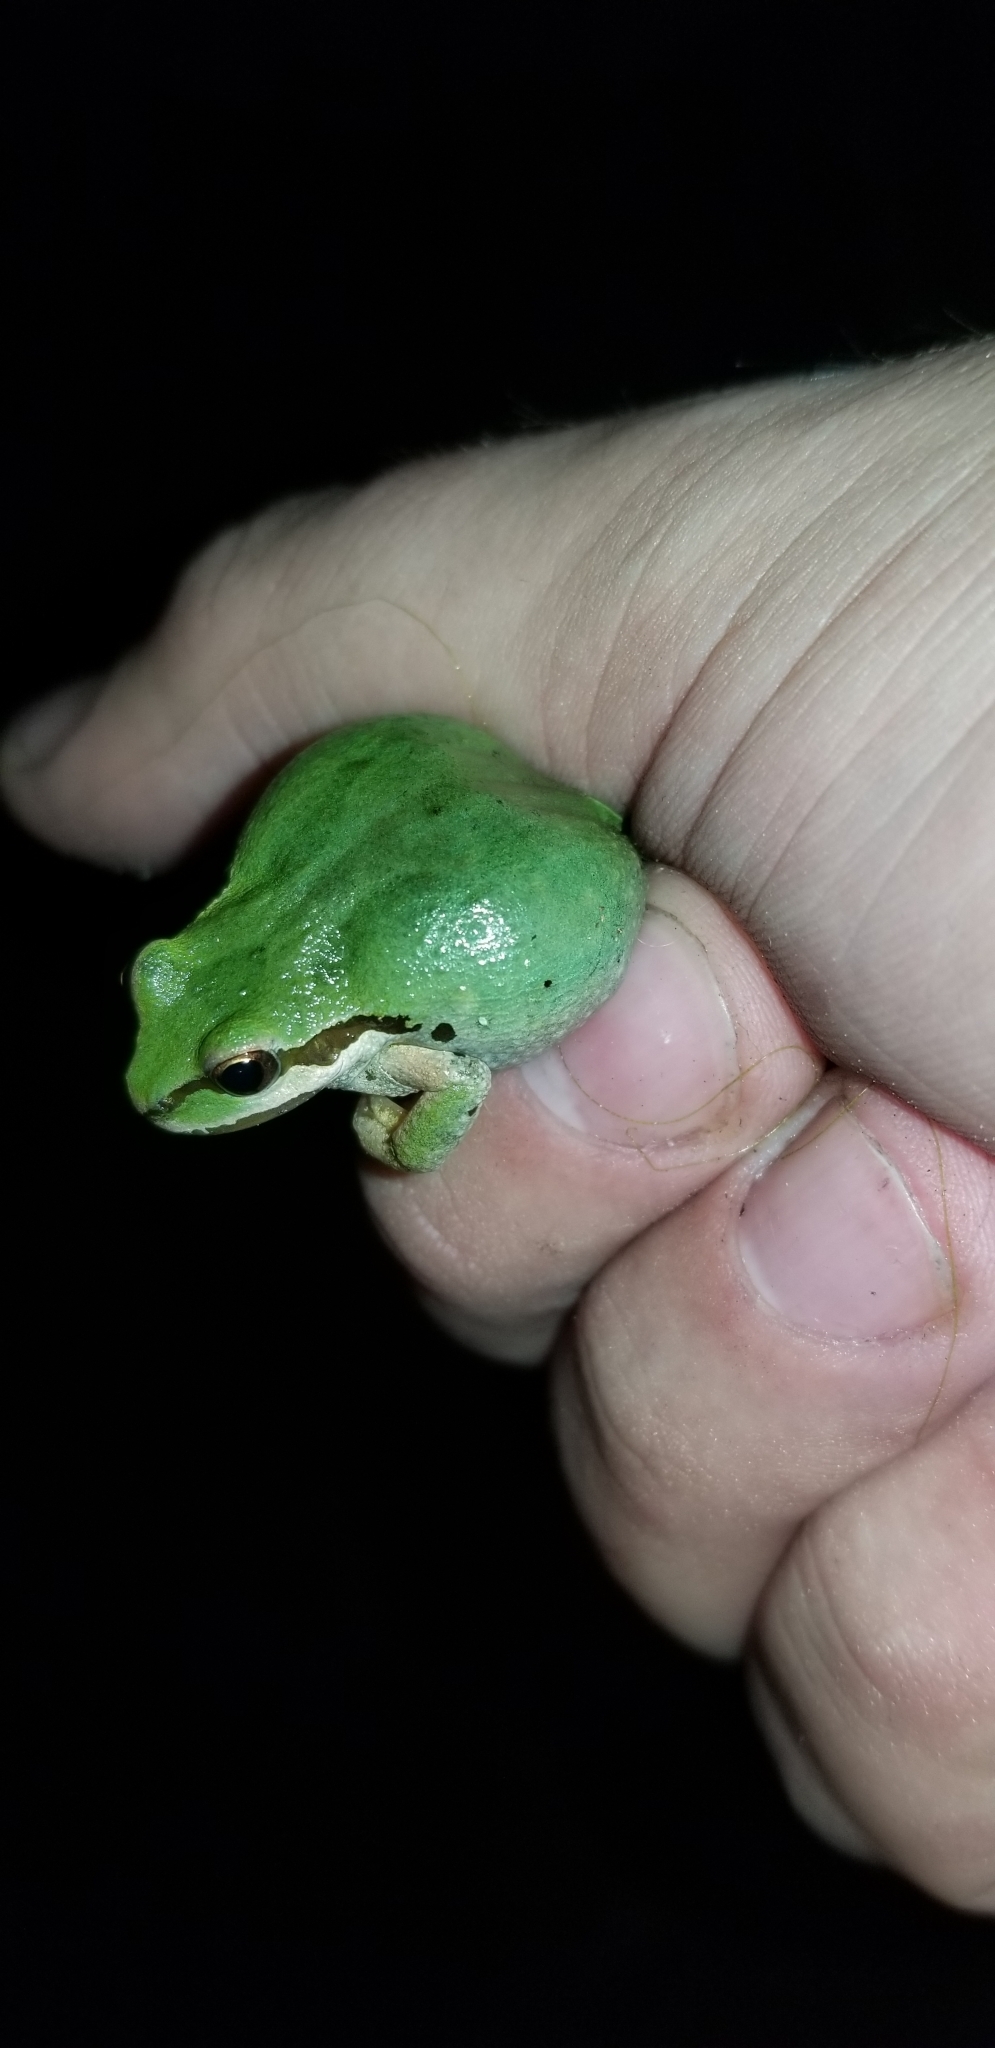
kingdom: Animalia
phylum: Chordata
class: Amphibia
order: Anura
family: Hylidae
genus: Pseudacris
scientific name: Pseudacris regilla
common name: Pacific chorus frog
